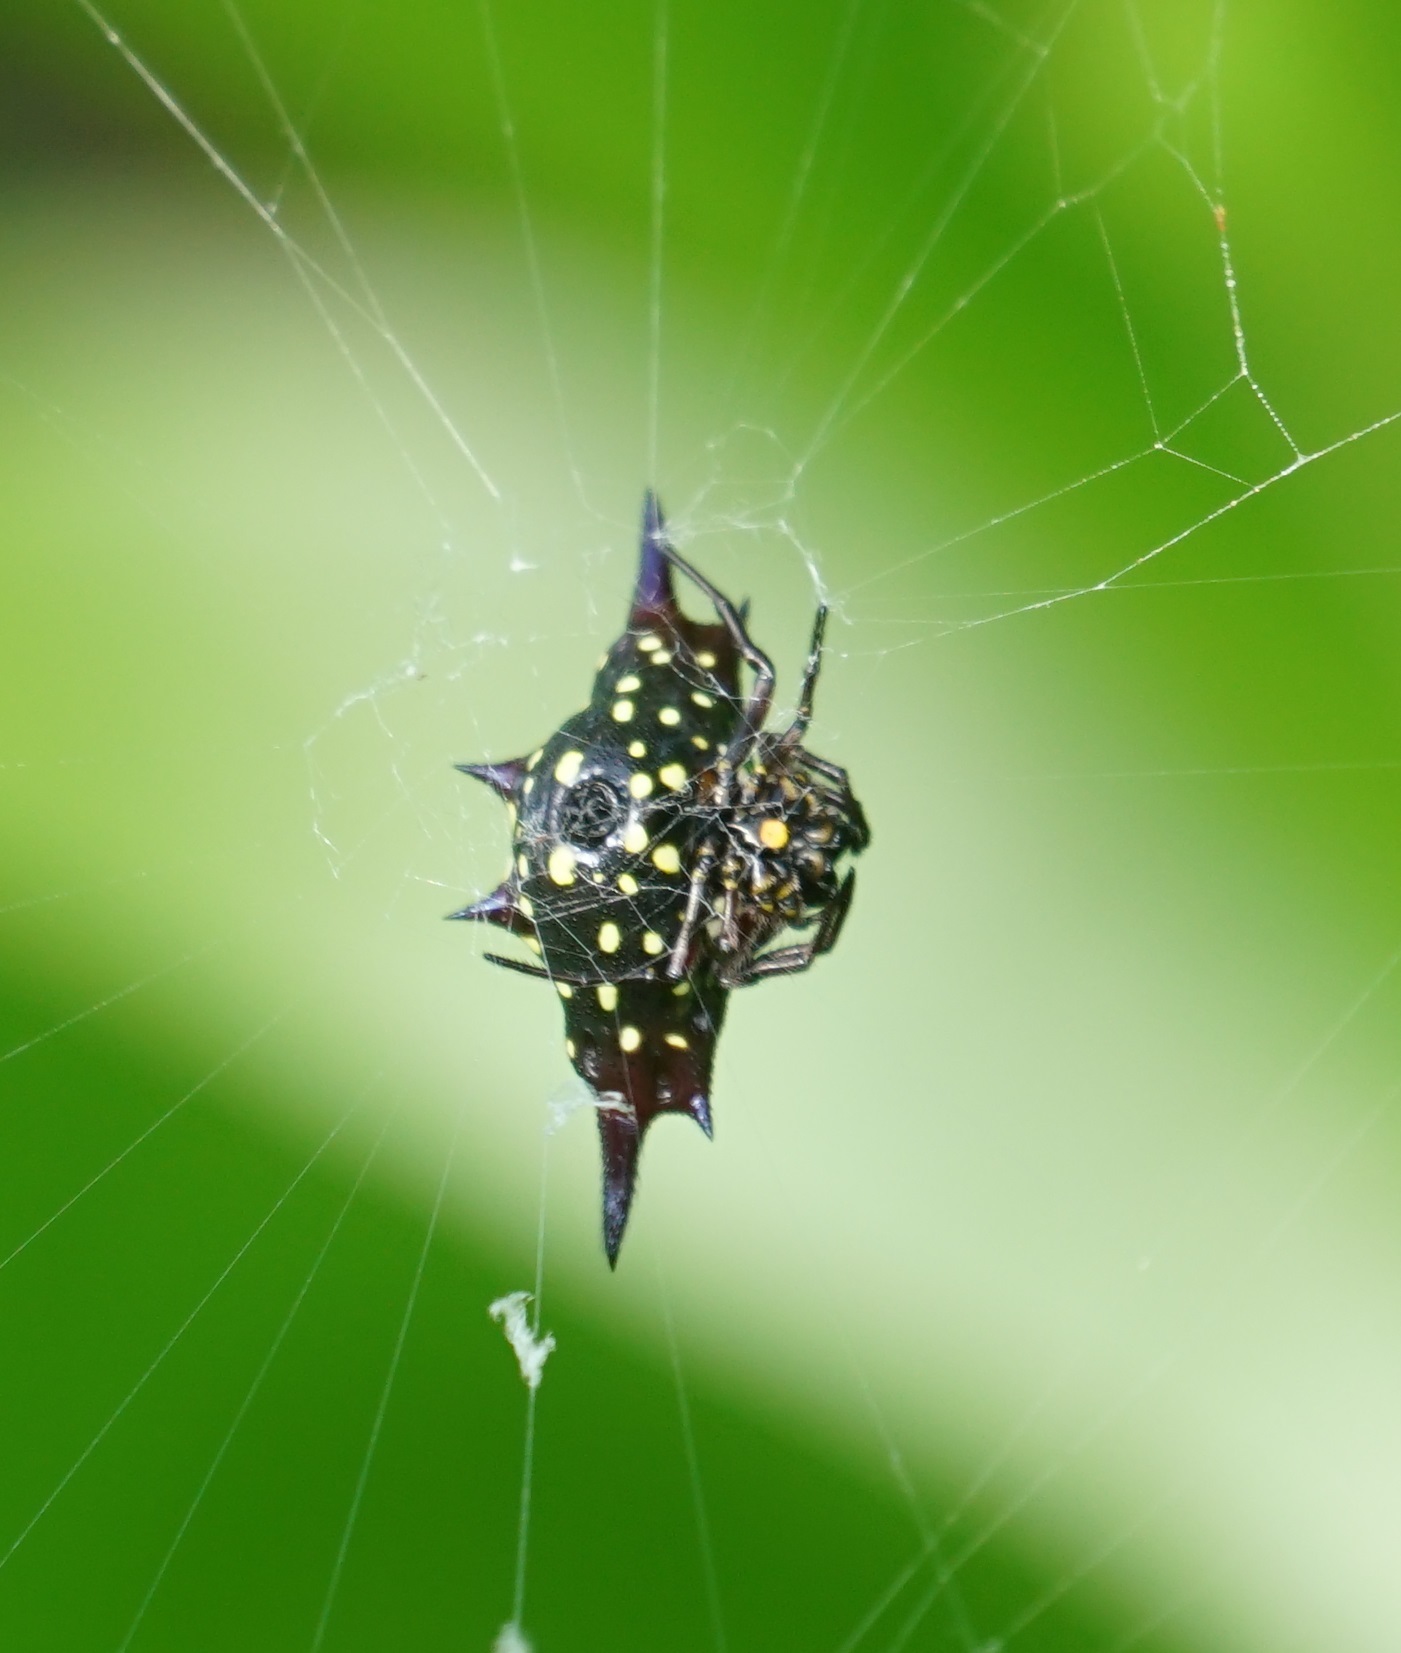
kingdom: Animalia
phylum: Arthropoda
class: Arachnida
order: Araneae
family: Araneidae
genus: Gasteracantha
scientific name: Gasteracantha fornicata
